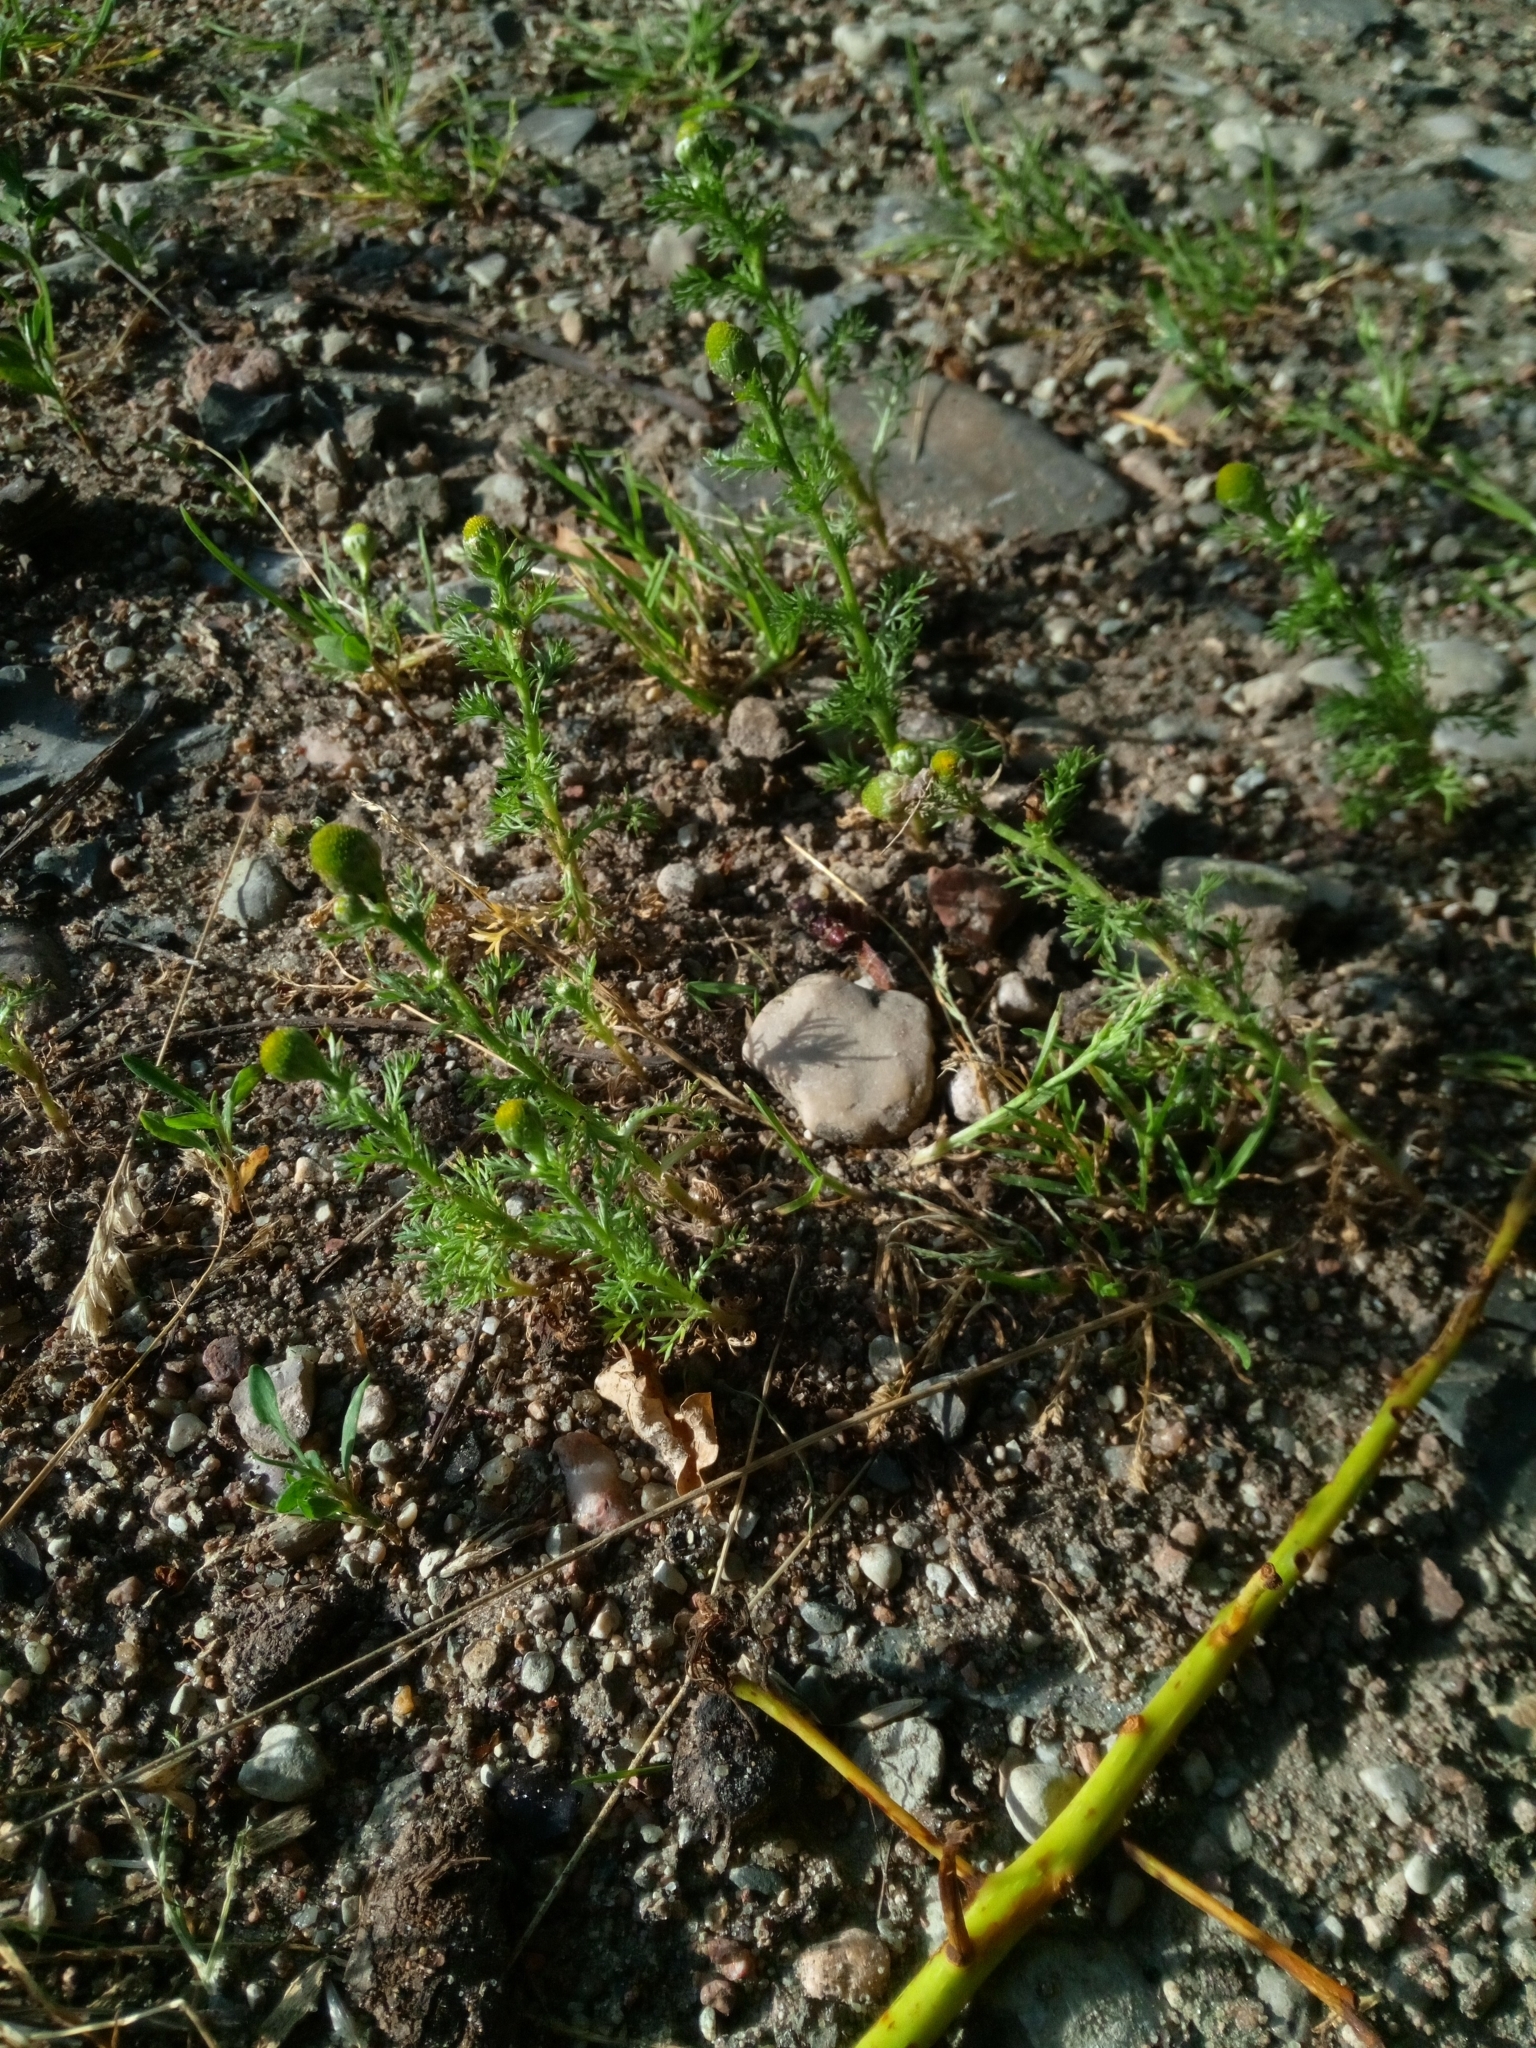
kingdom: Plantae
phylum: Tracheophyta
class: Magnoliopsida
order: Asterales
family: Asteraceae
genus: Matricaria
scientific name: Matricaria discoidea
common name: Disc mayweed
